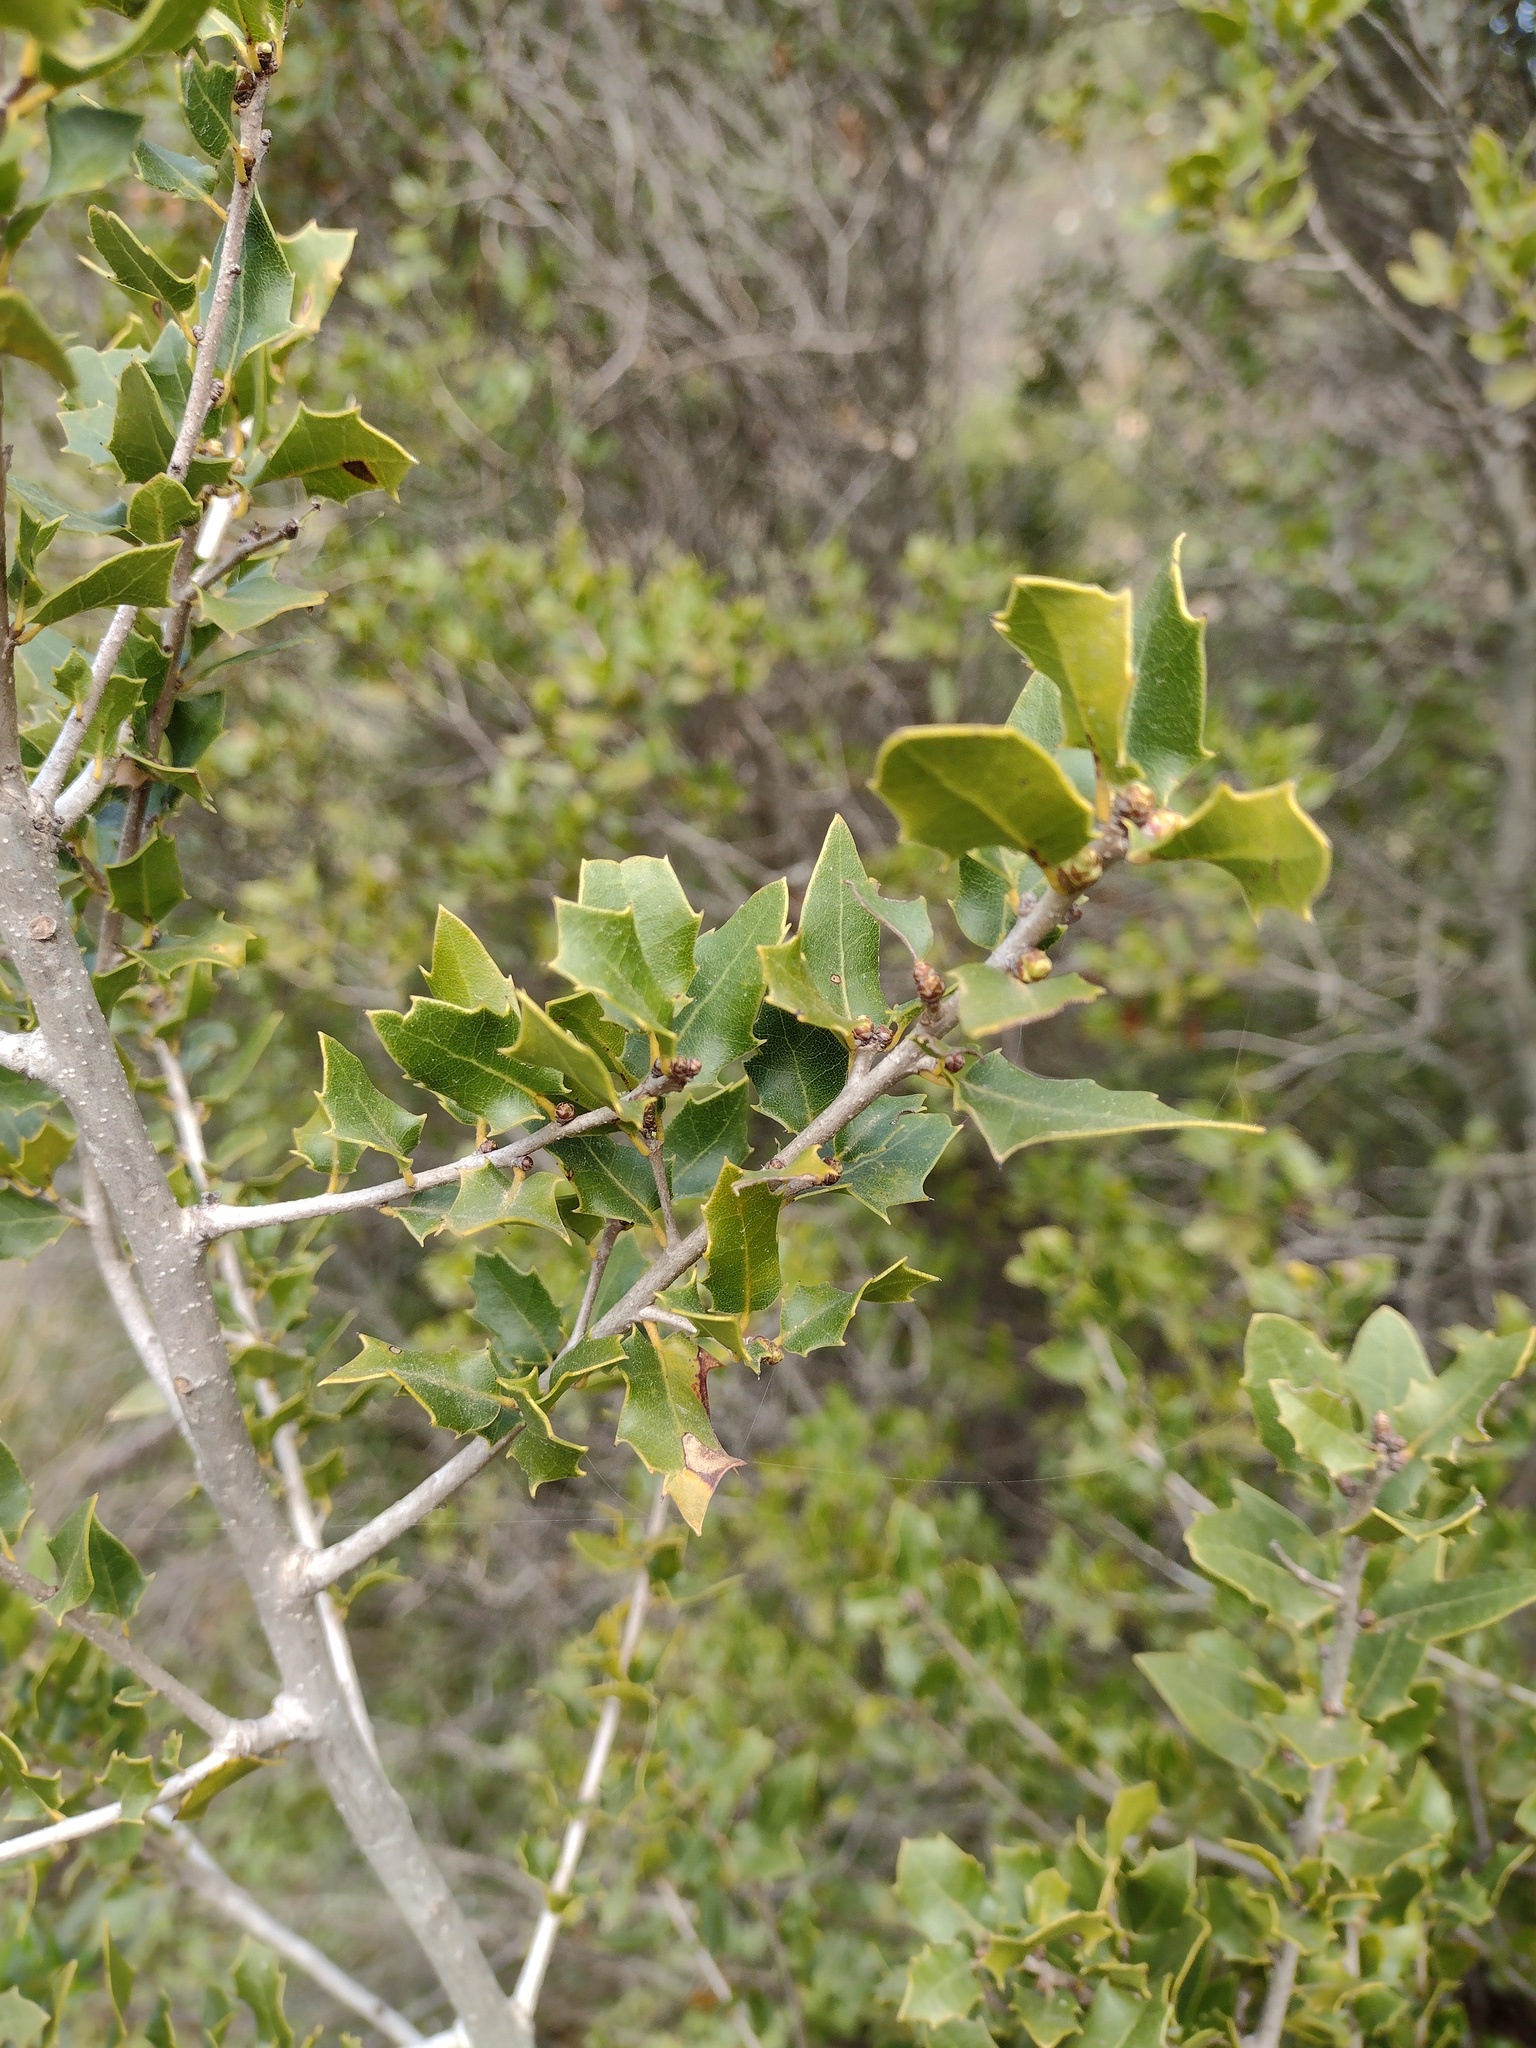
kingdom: Plantae
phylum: Tracheophyta
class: Magnoliopsida
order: Fagales
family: Fagaceae
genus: Quercus
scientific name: Quercus coccifera
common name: Kermes oak
